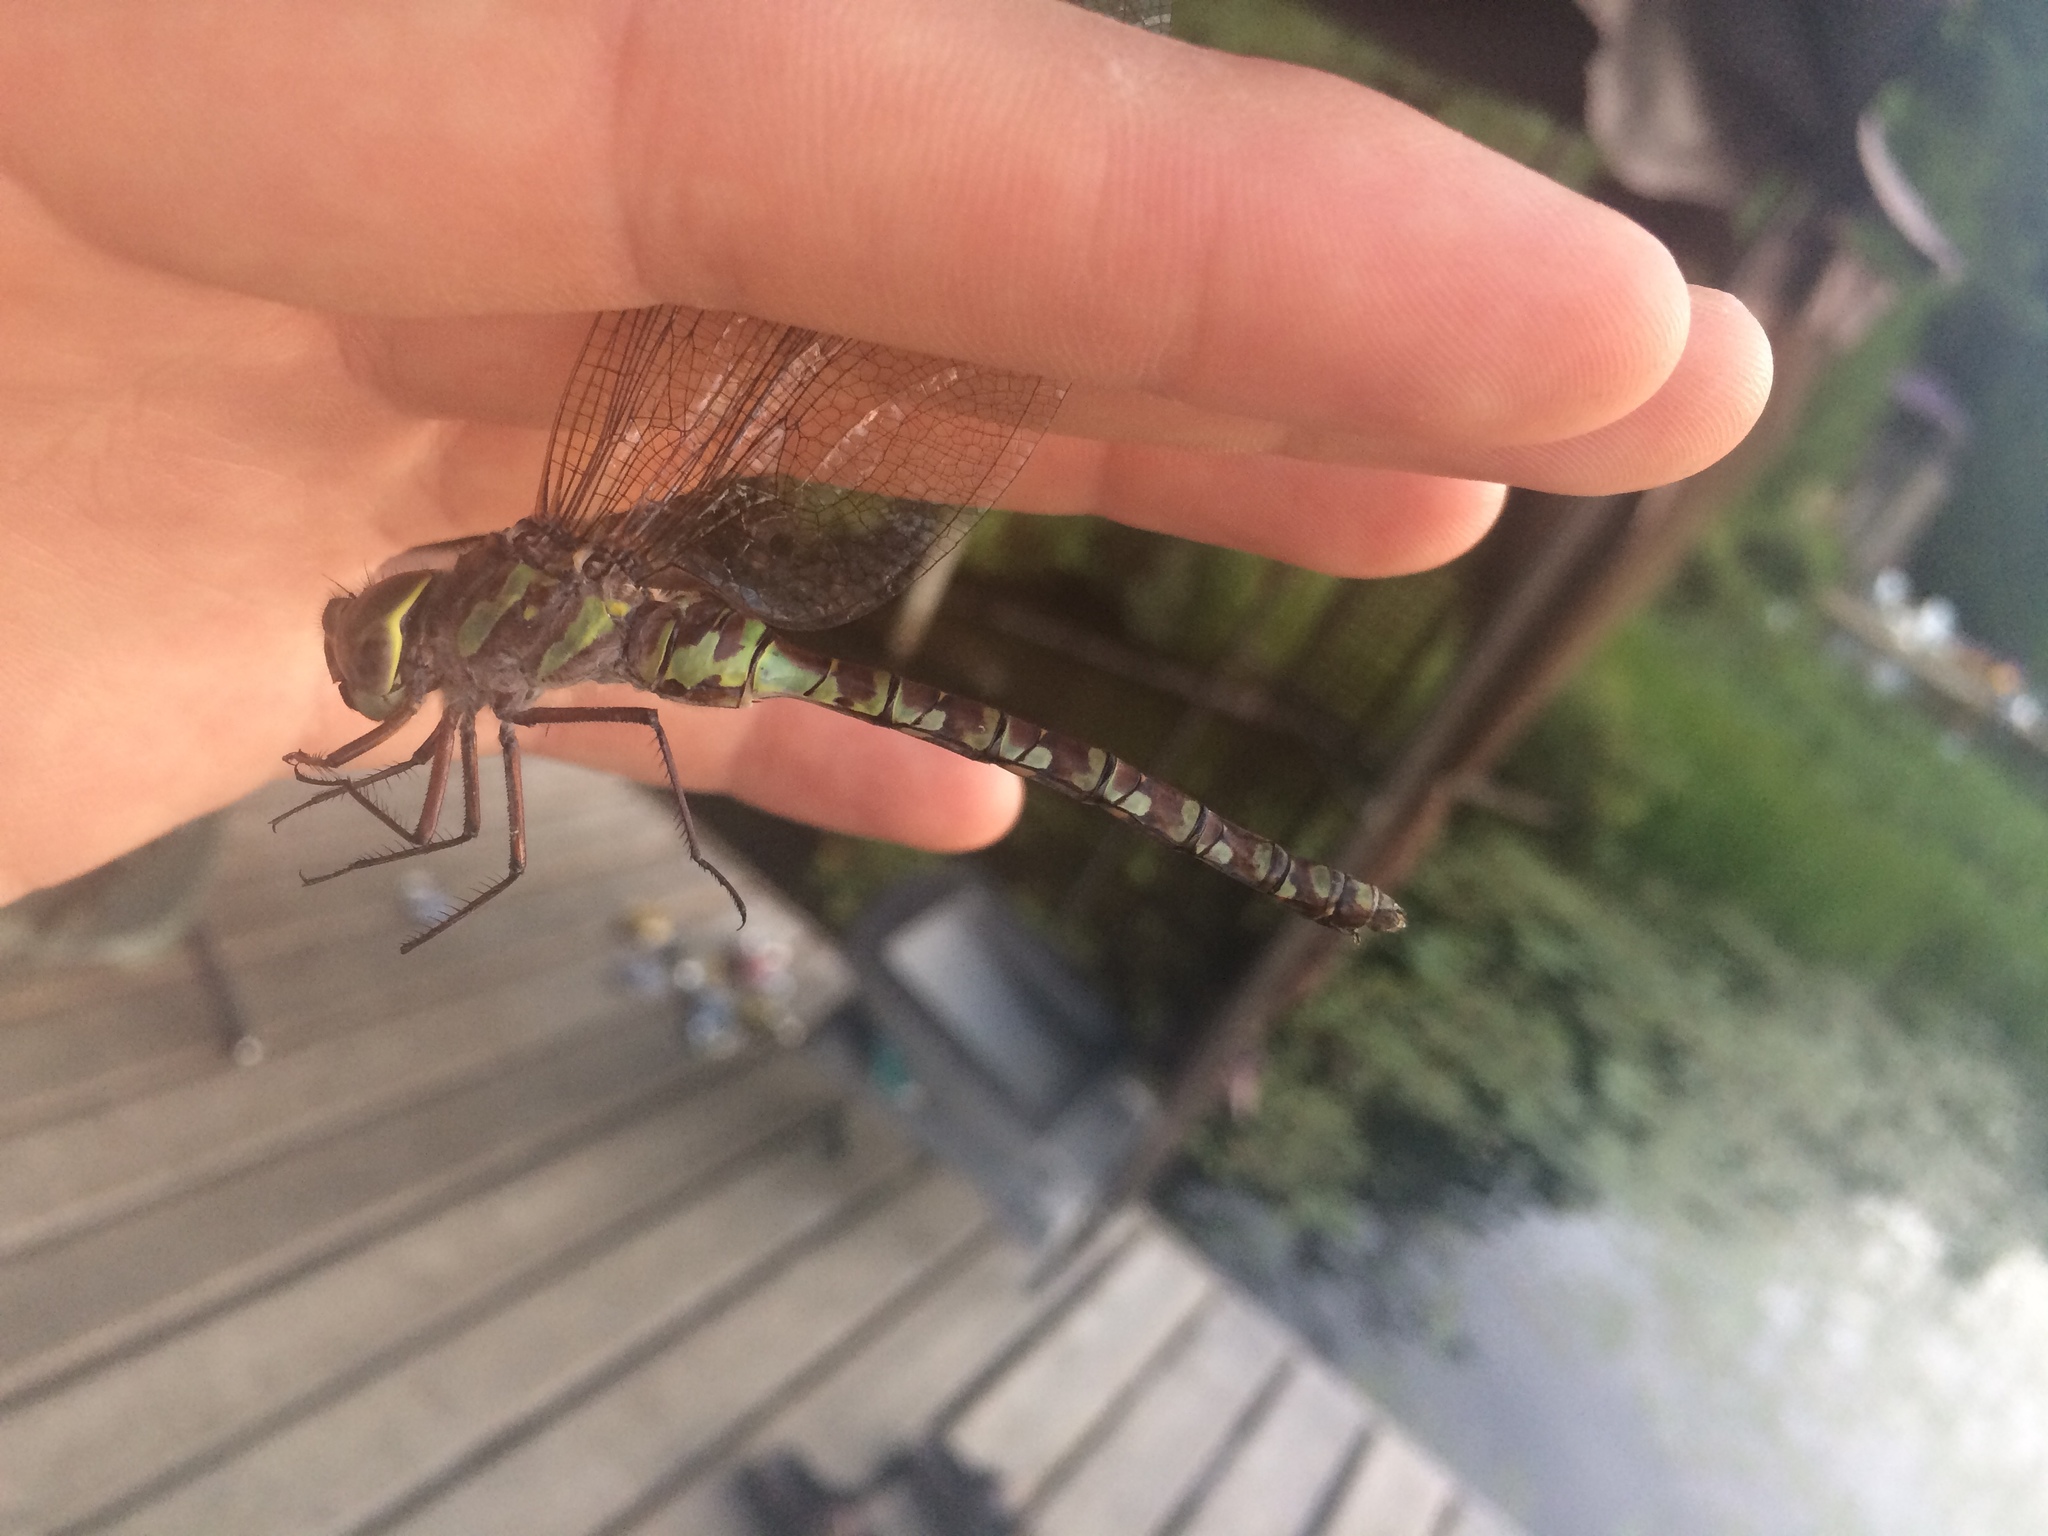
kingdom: Animalia
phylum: Arthropoda
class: Insecta
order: Odonata
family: Aeshnidae
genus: Aeshna
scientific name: Aeshna canadensis
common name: Canada darner
